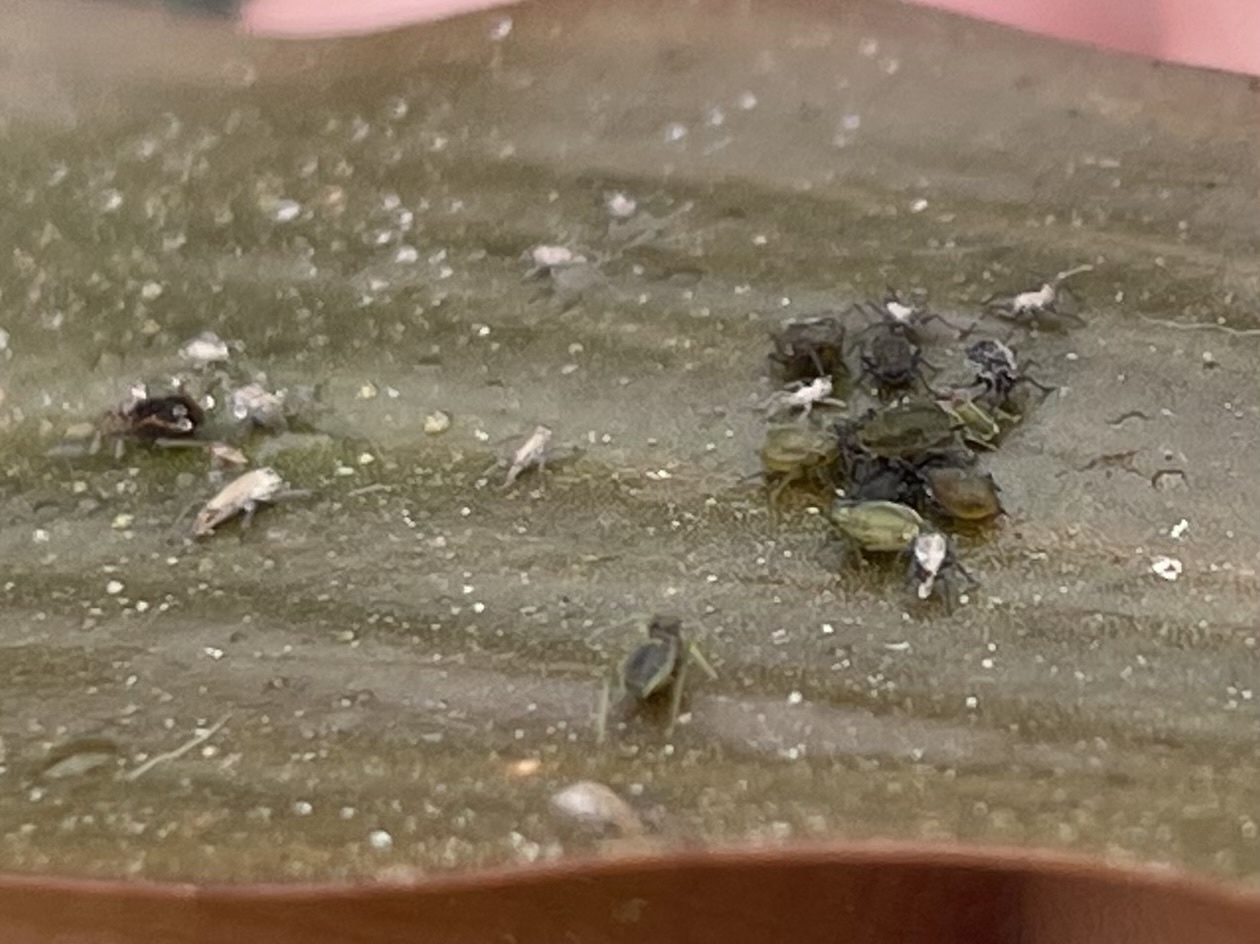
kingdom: Animalia
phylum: Arthropoda
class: Insecta
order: Hemiptera
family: Aphididae
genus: Rhopalosiphum
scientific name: Rhopalosiphum nymphaeae
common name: Water lily aphid
